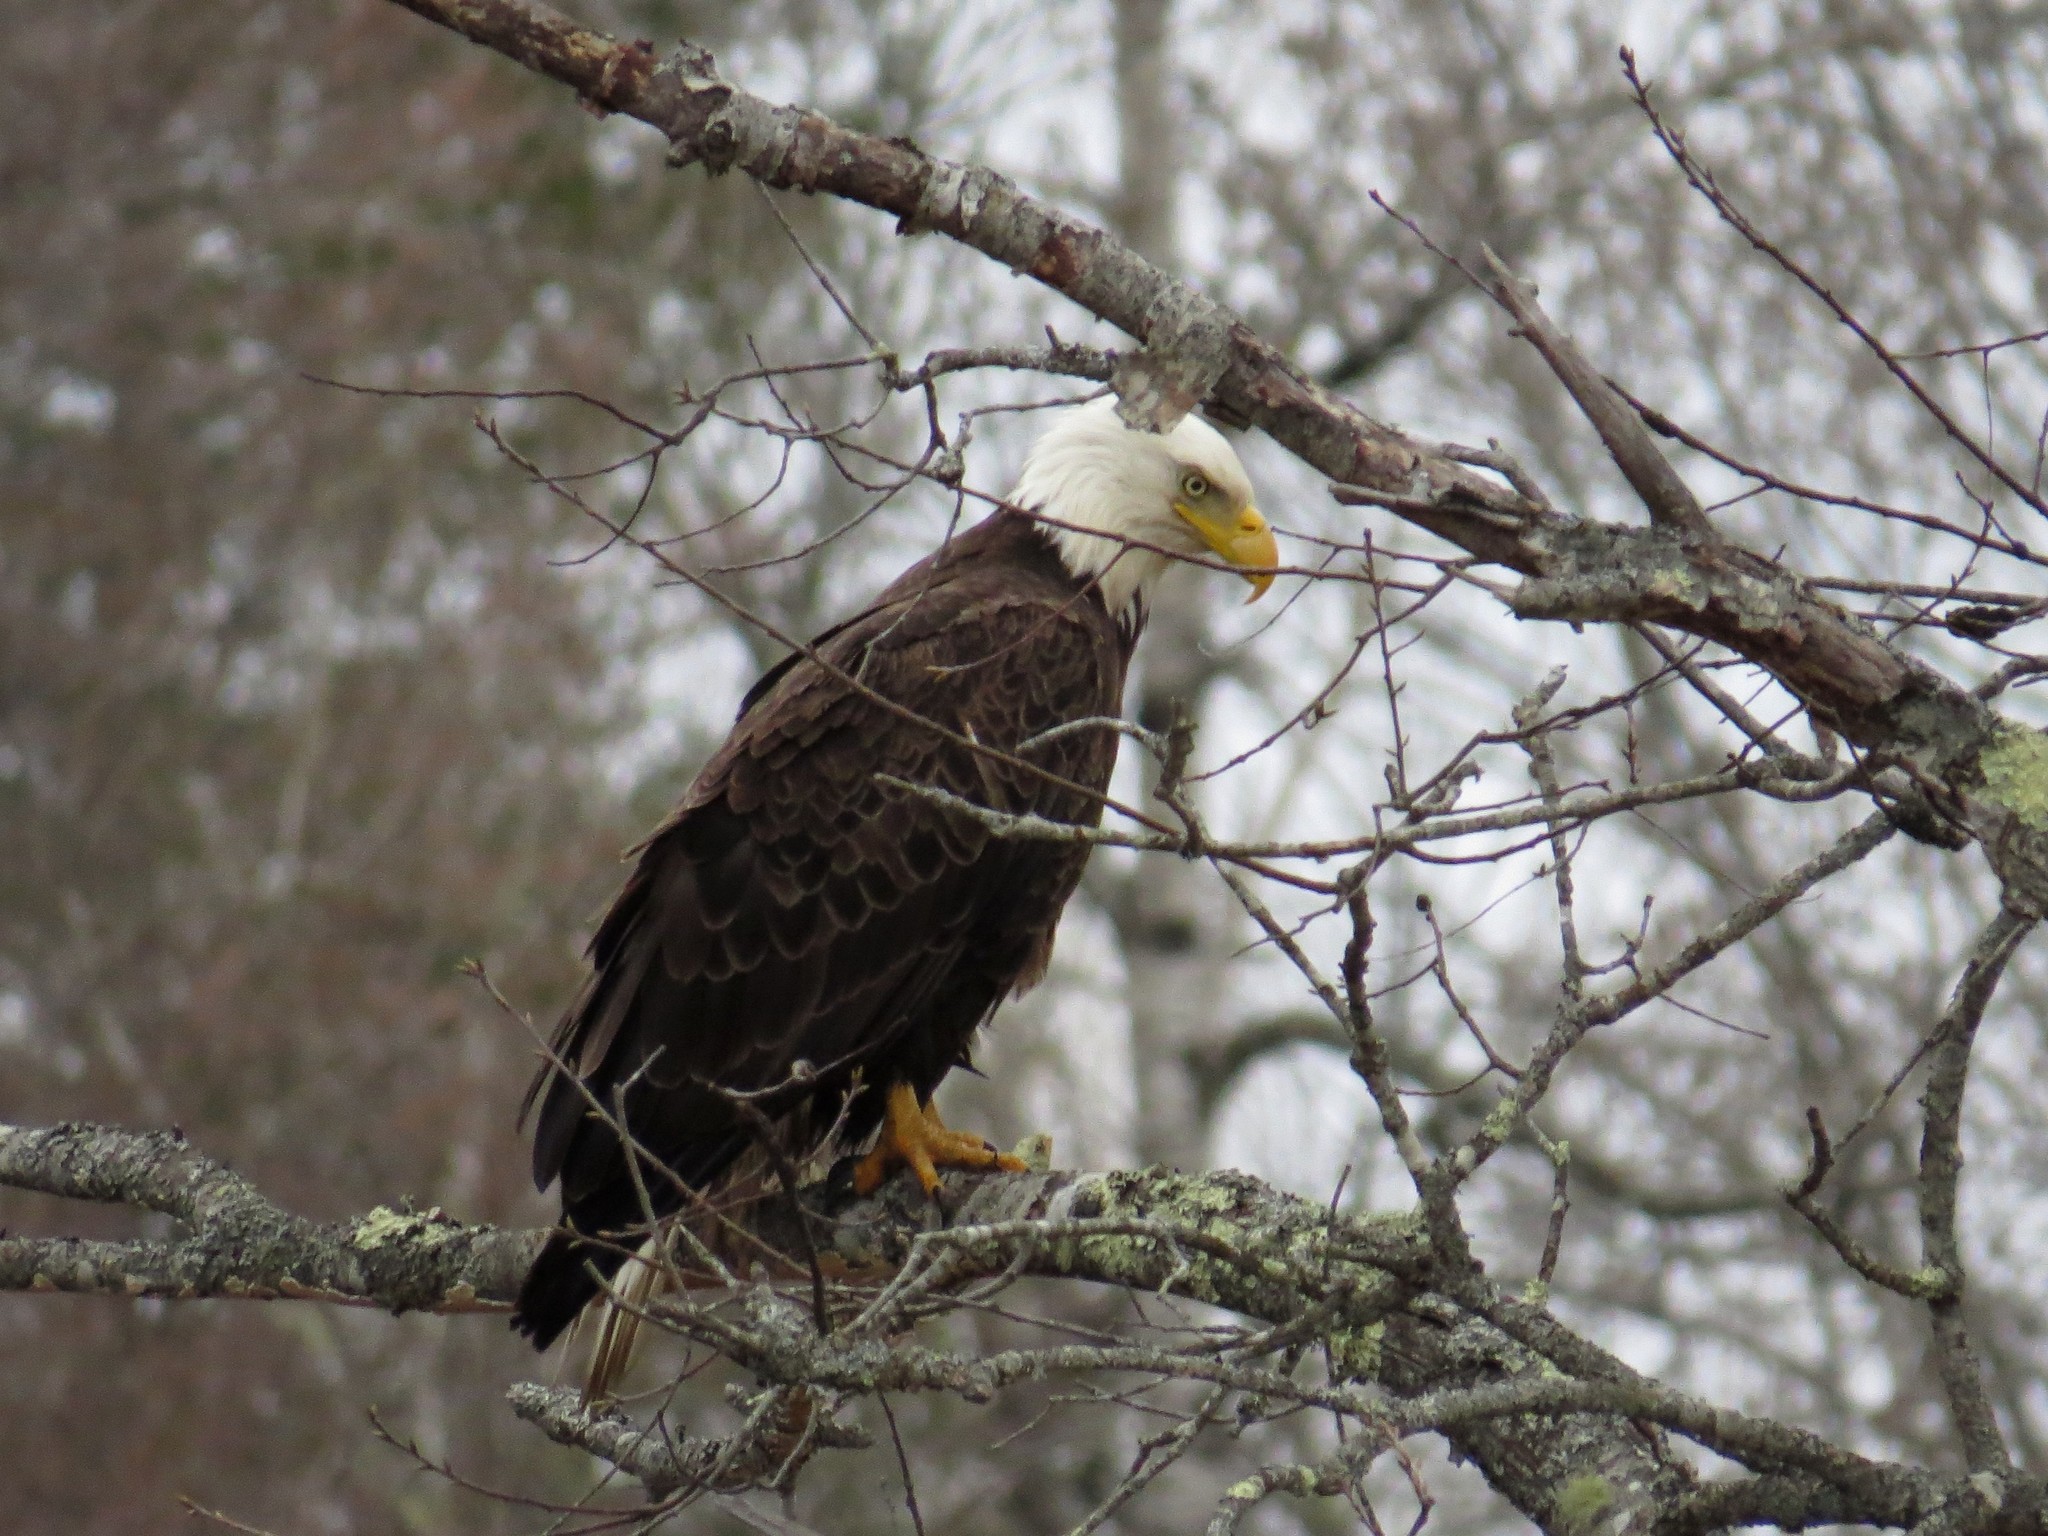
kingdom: Animalia
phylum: Chordata
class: Aves
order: Accipitriformes
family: Accipitridae
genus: Haliaeetus
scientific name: Haliaeetus leucocephalus
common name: Bald eagle
